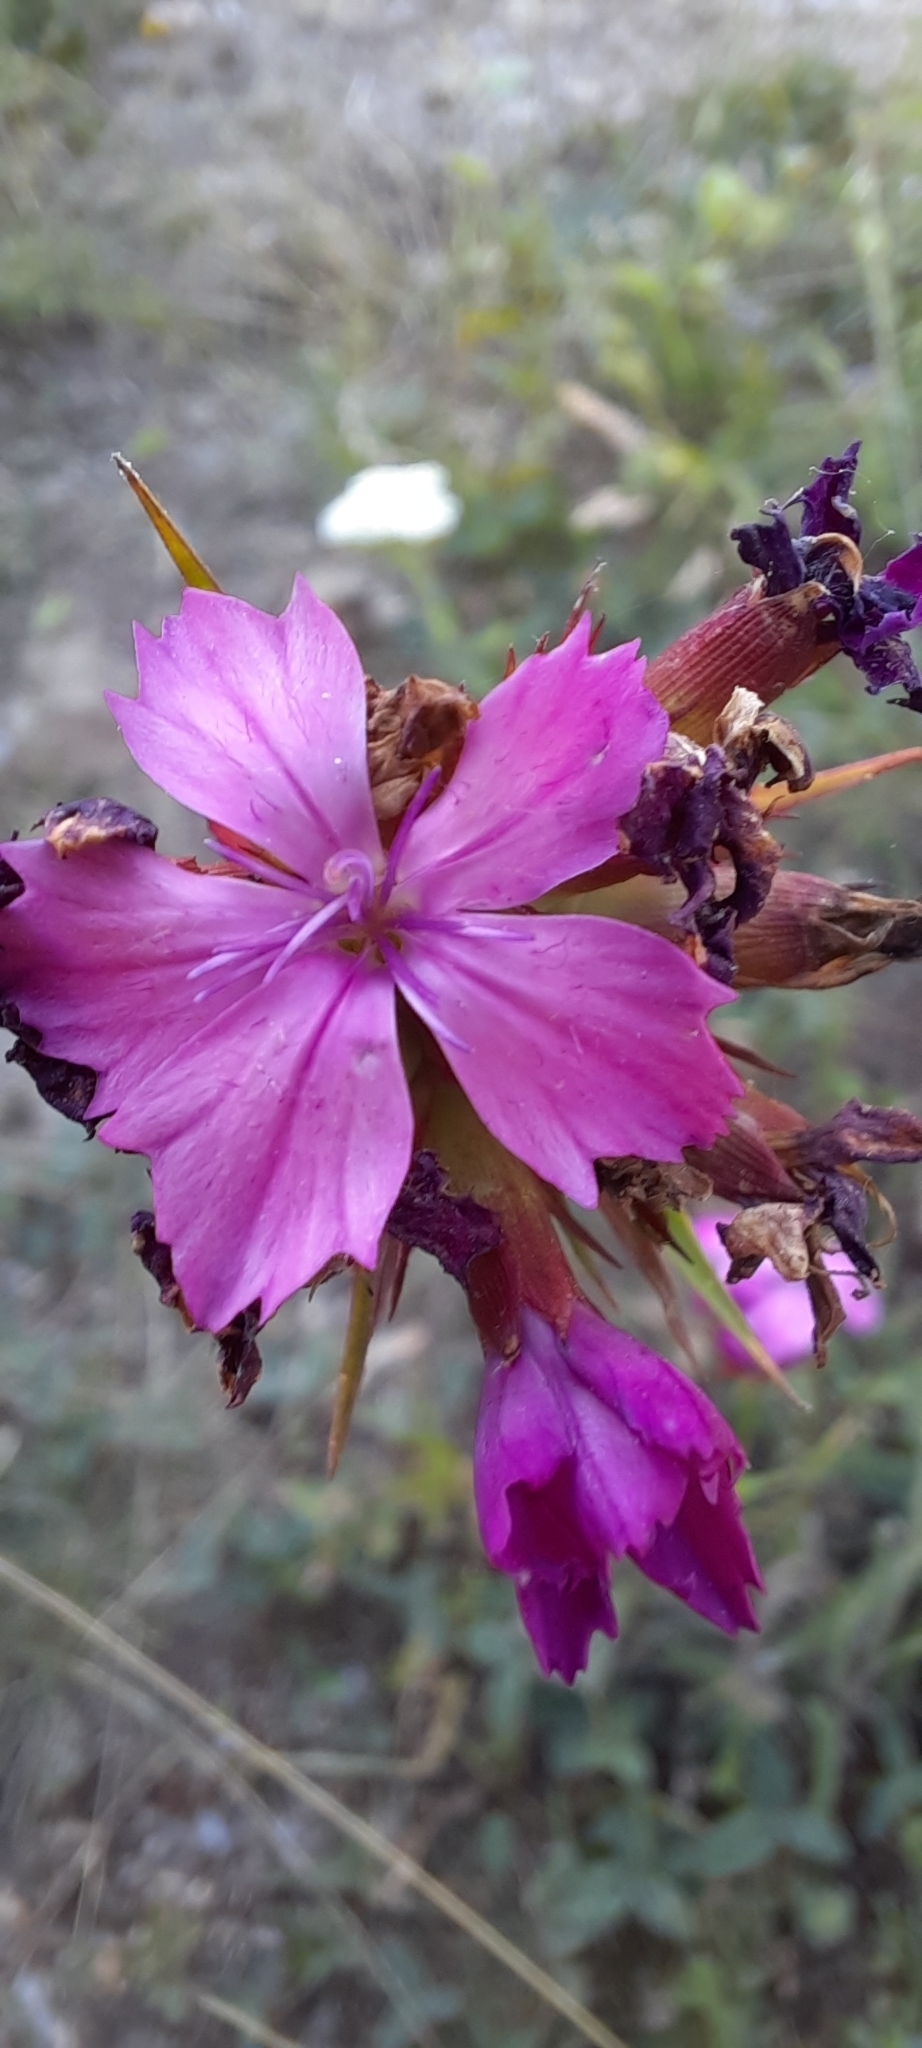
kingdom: Plantae
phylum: Tracheophyta
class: Magnoliopsida
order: Caryophyllales
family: Caryophyllaceae
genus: Dianthus
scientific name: Dianthus capitatus
